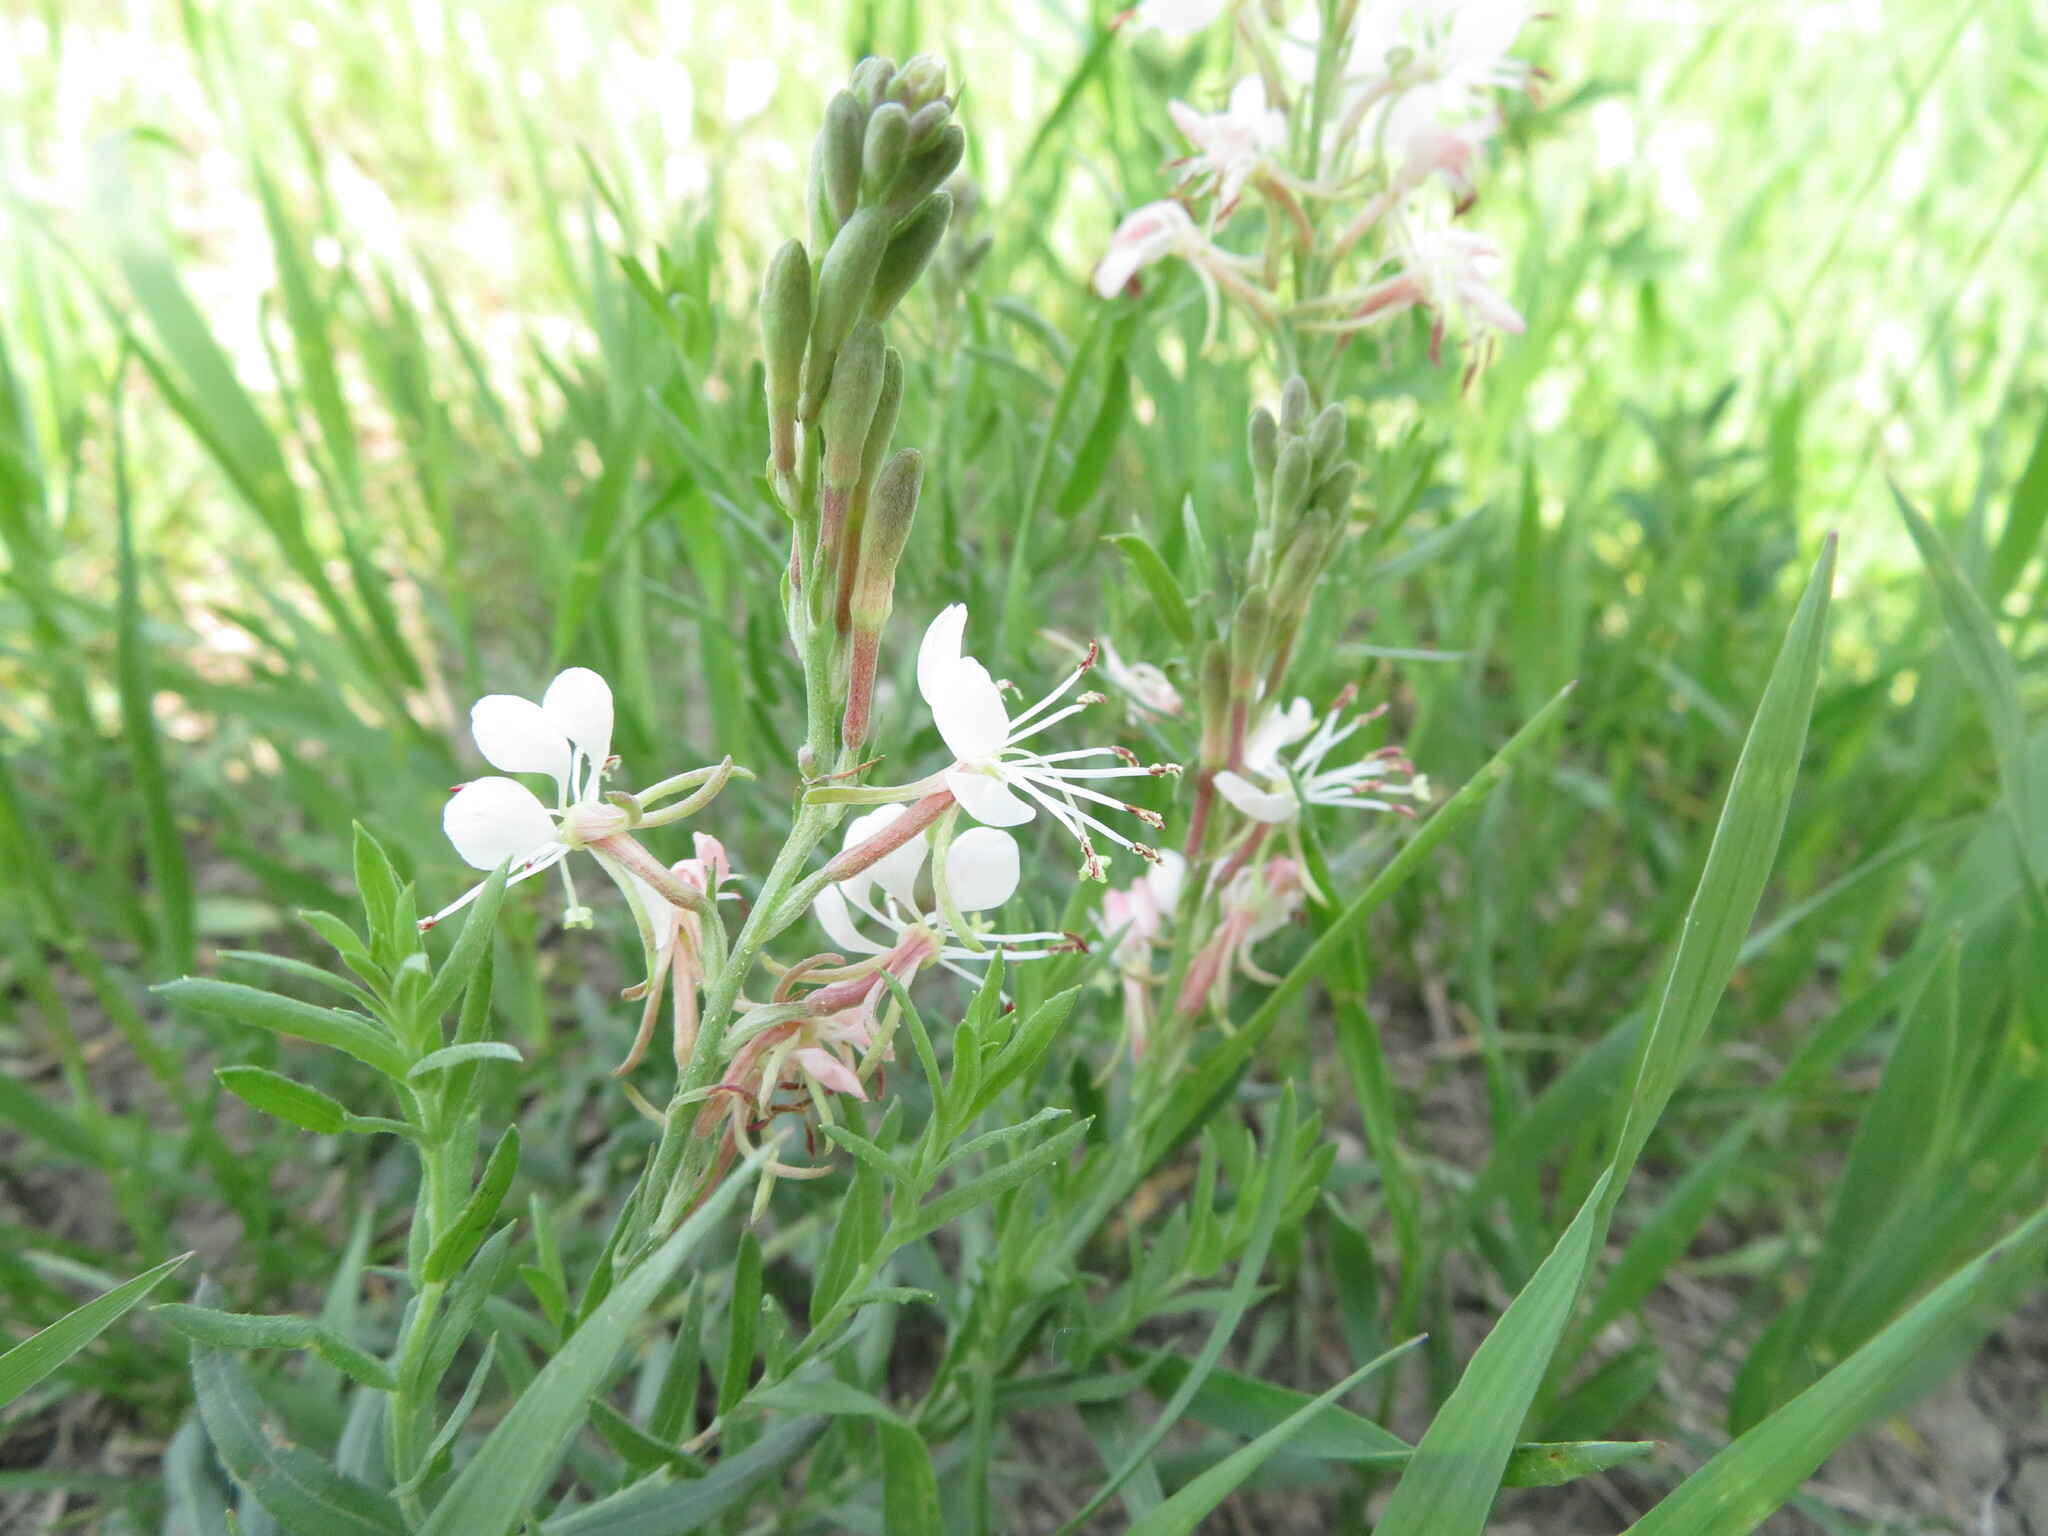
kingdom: Plantae
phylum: Tracheophyta
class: Magnoliopsida
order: Myrtales
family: Onagraceae
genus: Oenothera
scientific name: Oenothera suffrutescens
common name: Scarlet beeblossom
